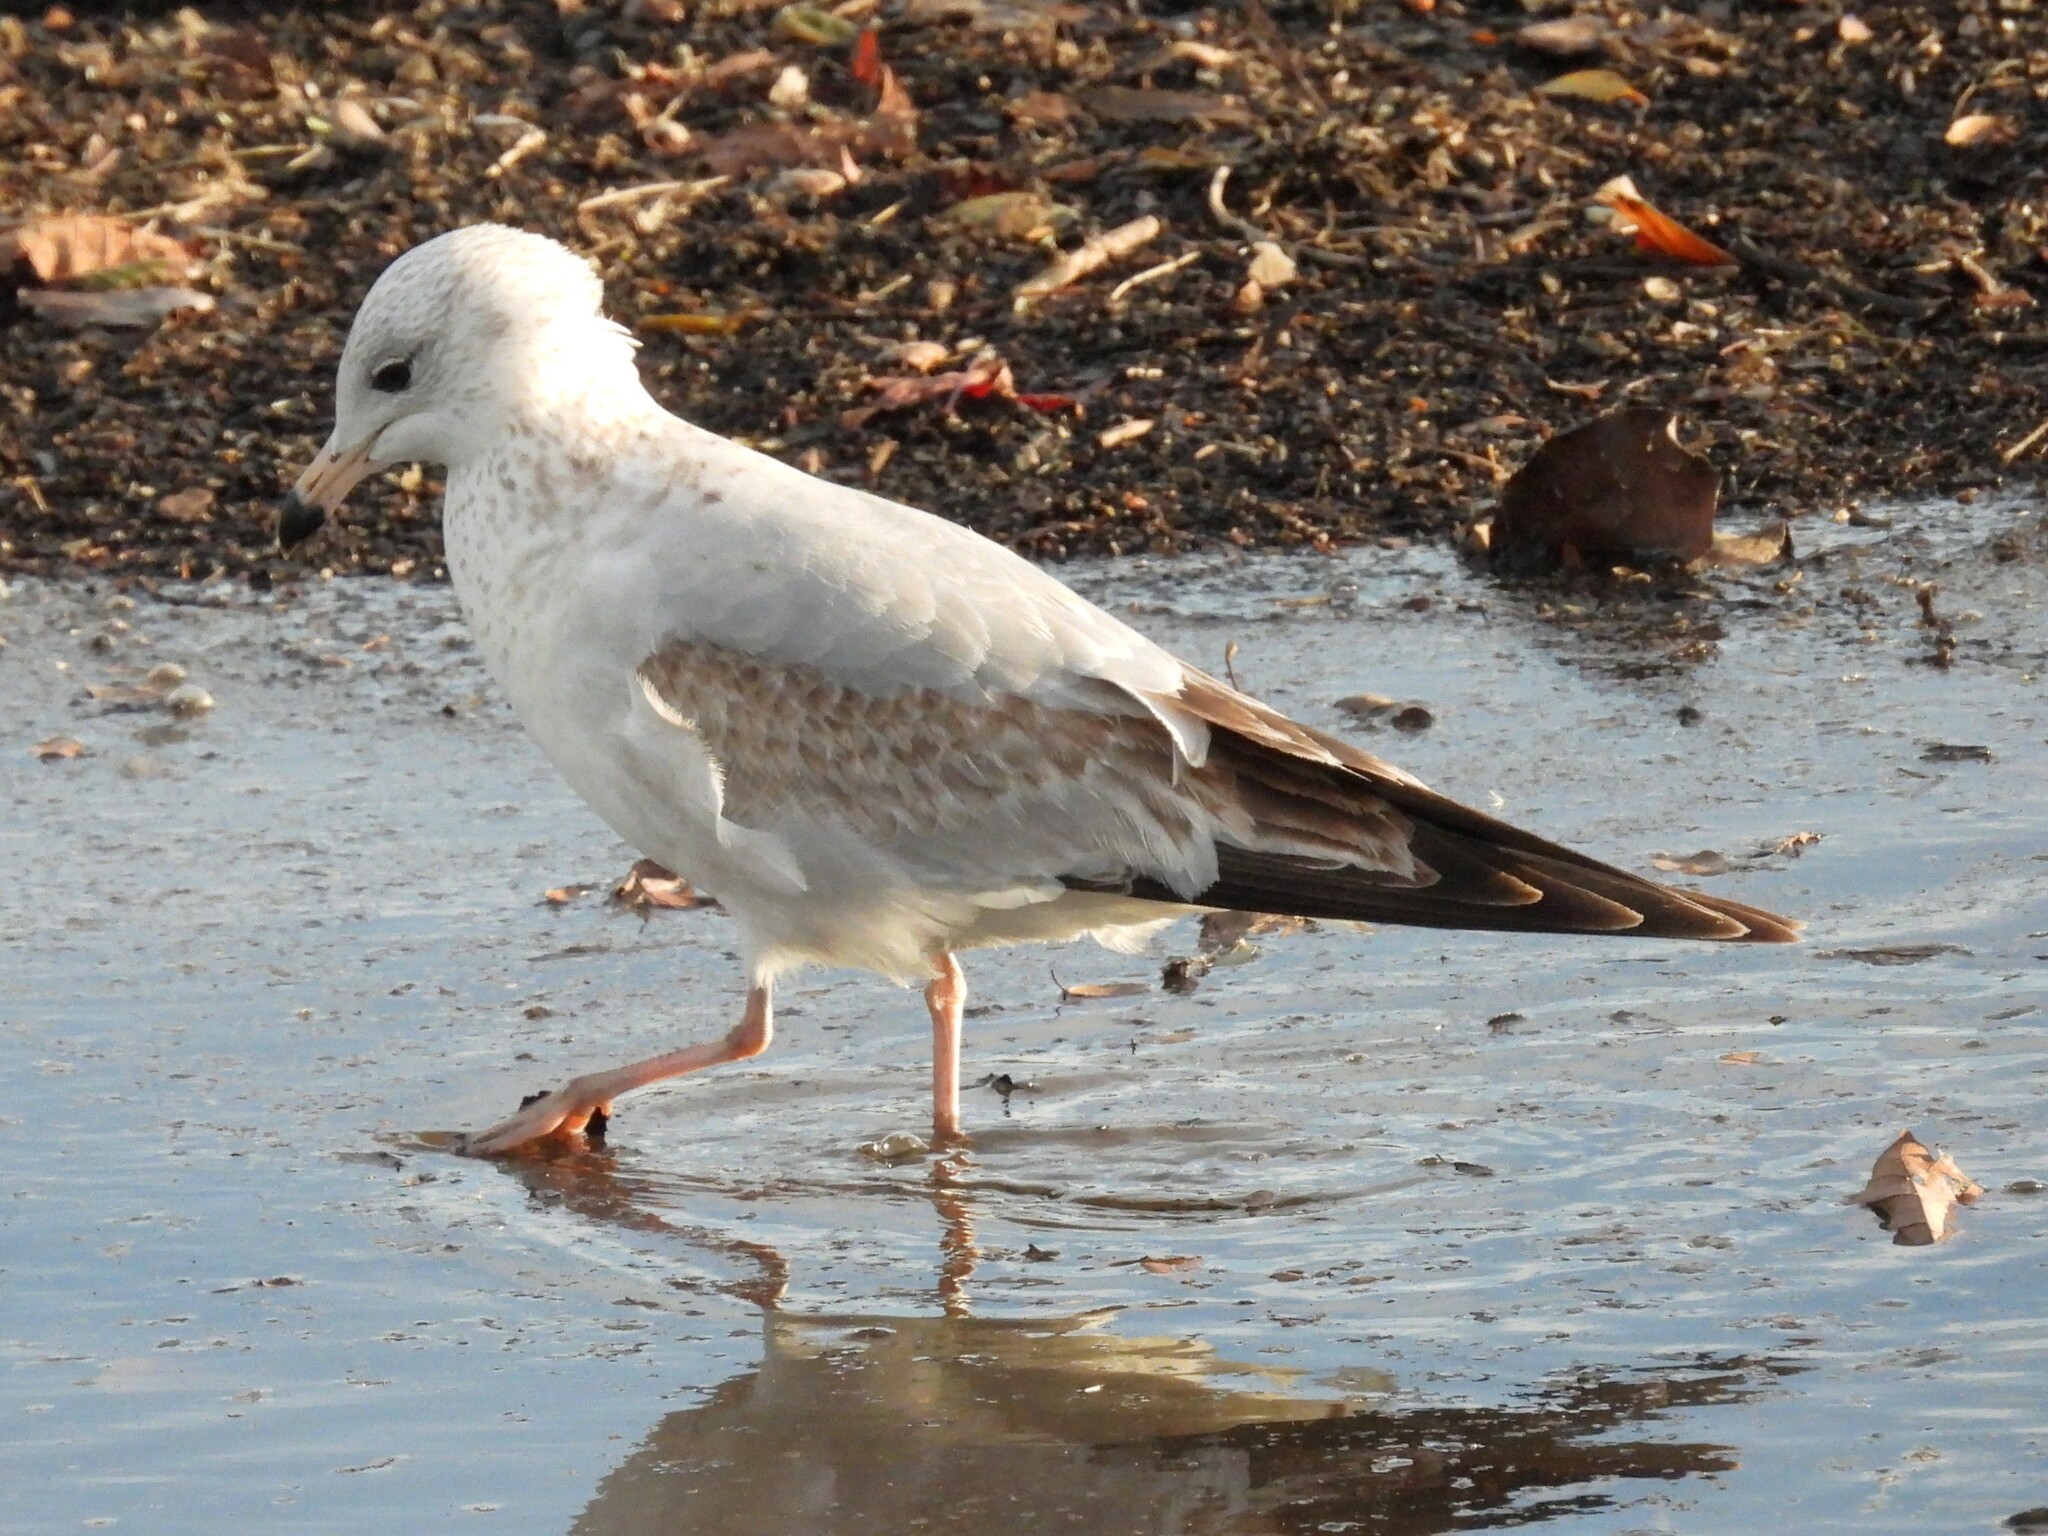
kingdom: Animalia
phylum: Chordata
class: Aves
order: Charadriiformes
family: Laridae
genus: Larus
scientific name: Larus delawarensis
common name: Ring-billed gull
